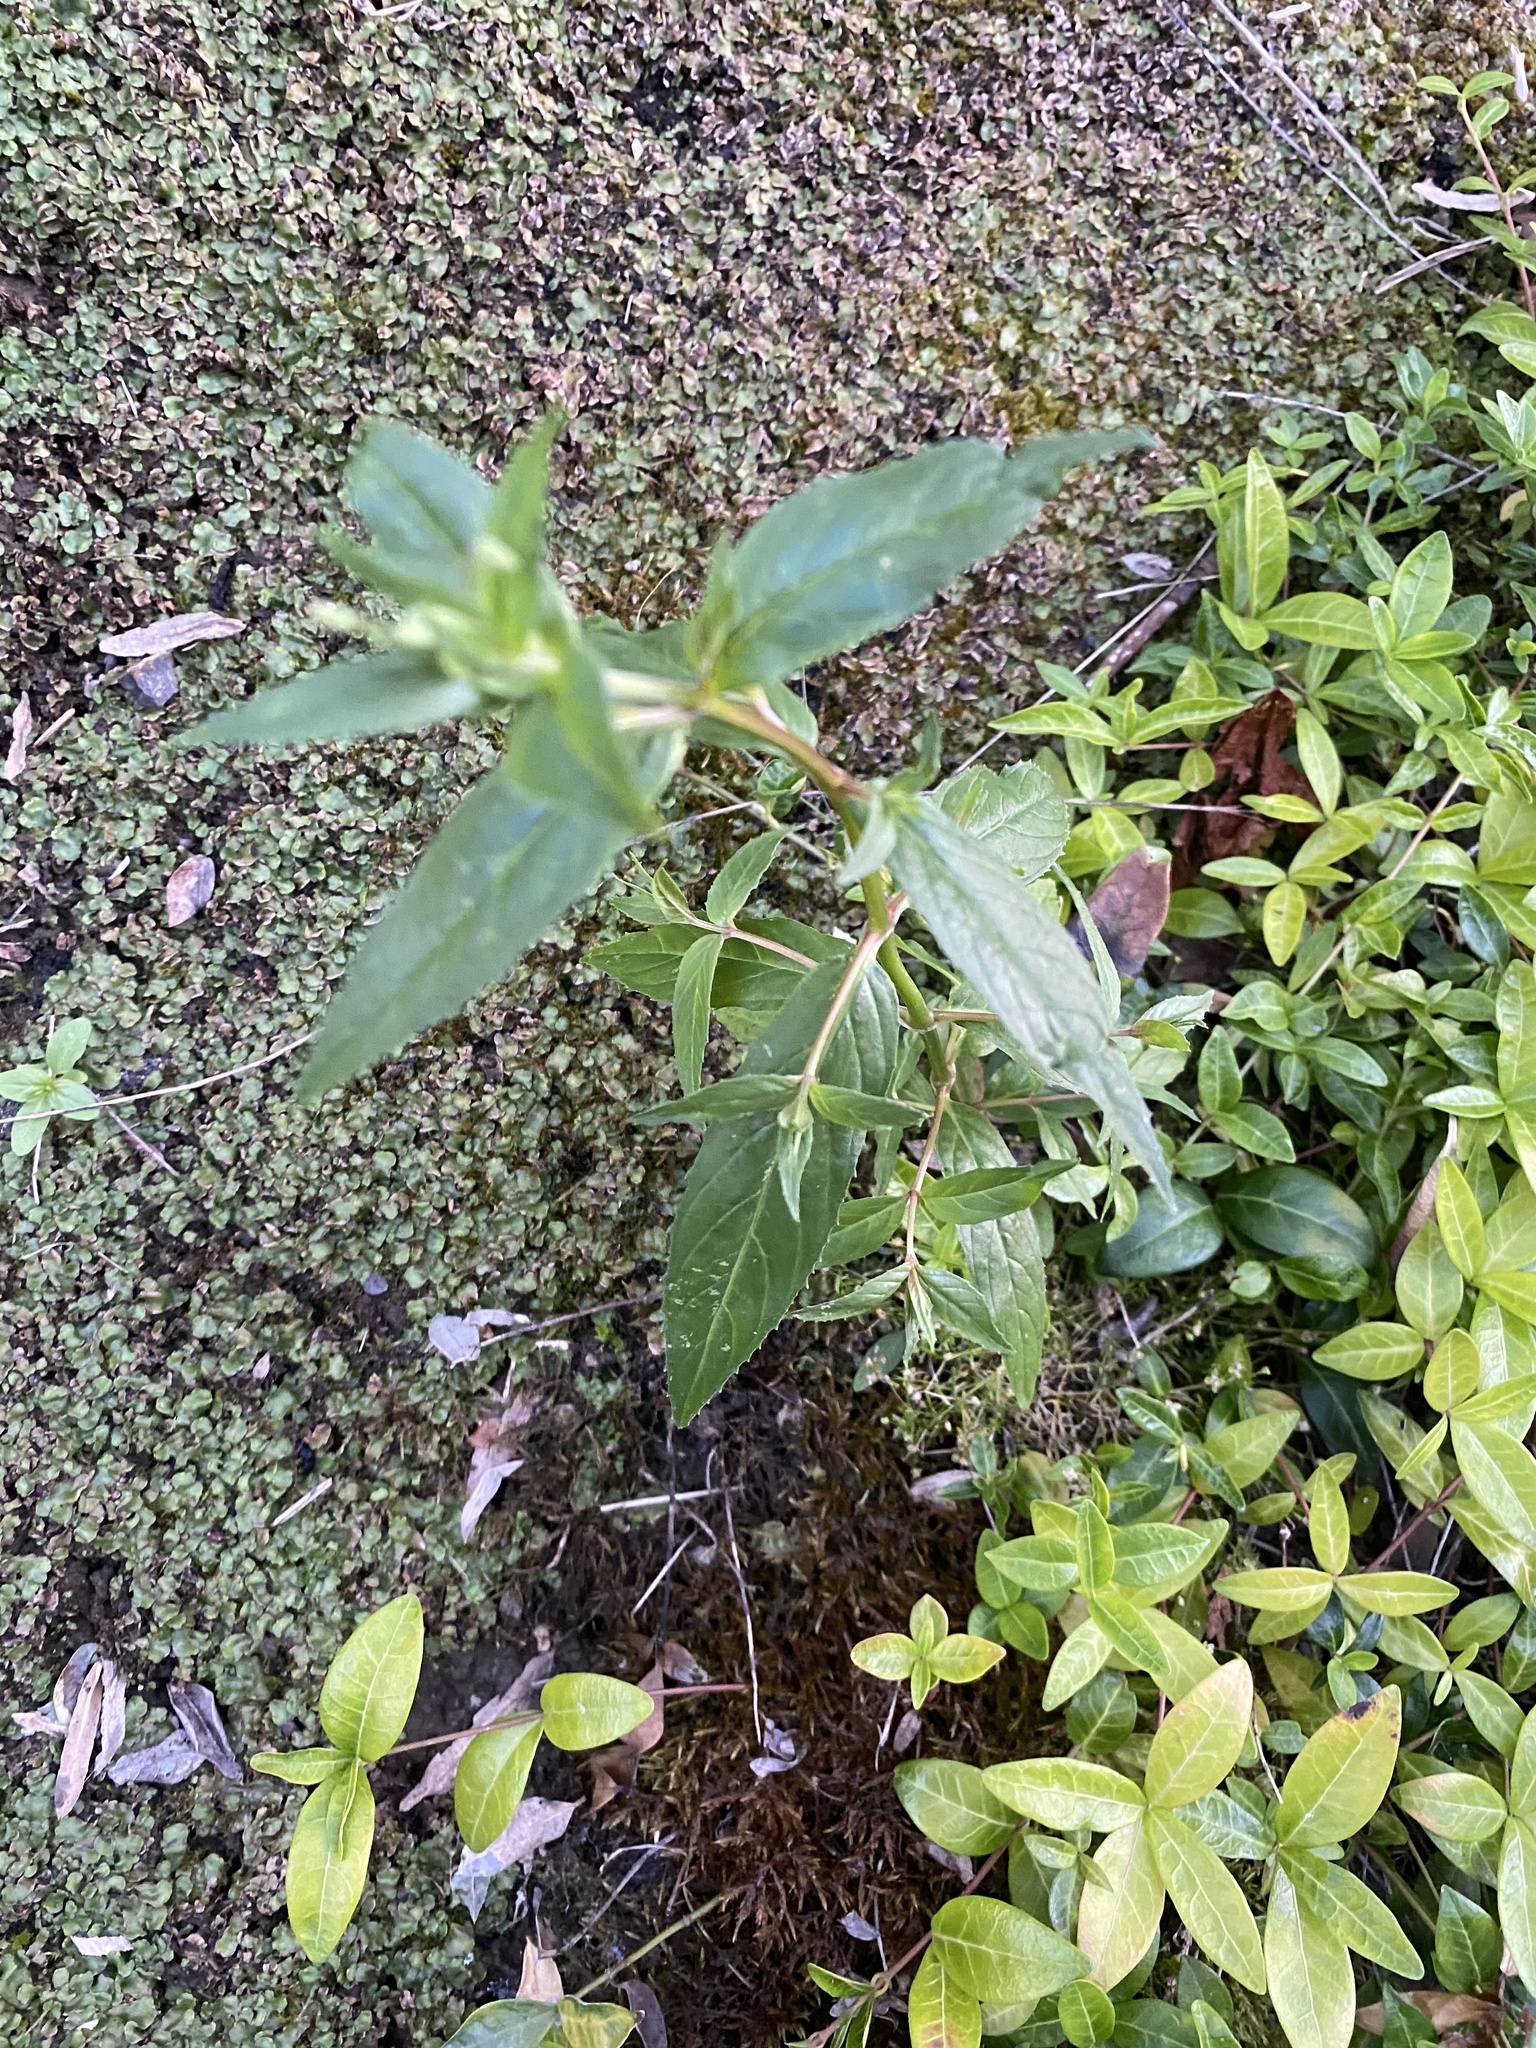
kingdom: Plantae
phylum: Tracheophyta
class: Magnoliopsida
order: Myrtales
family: Onagraceae
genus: Epilobium
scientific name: Epilobium ciliatum
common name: American willowherb
